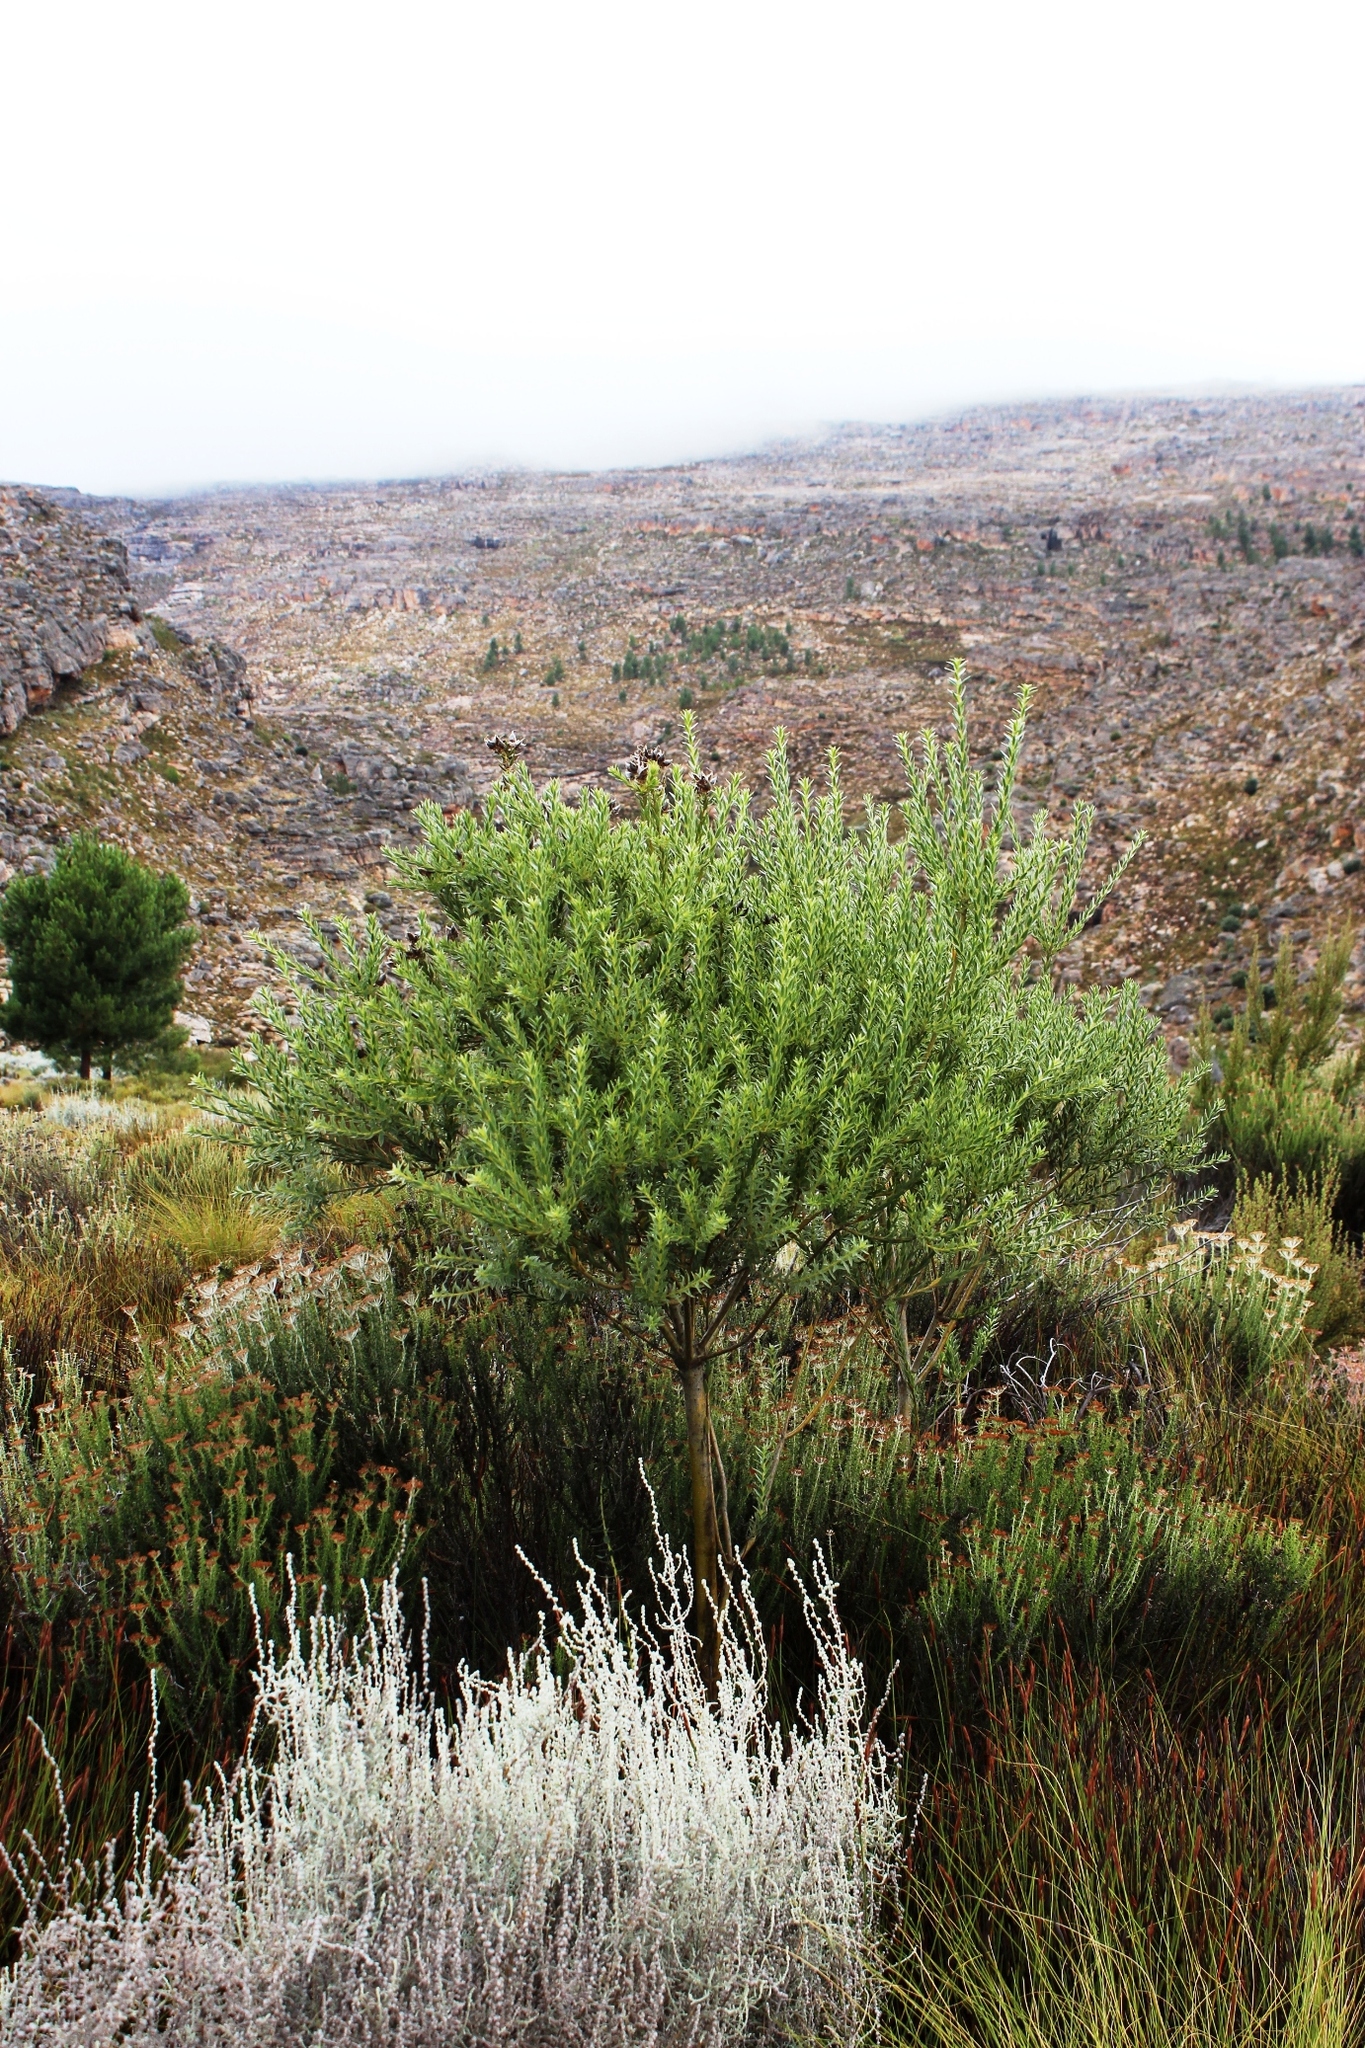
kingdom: Plantae
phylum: Tracheophyta
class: Magnoliopsida
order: Fabales
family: Fabaceae
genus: Liparia
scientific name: Liparia umbellifera
